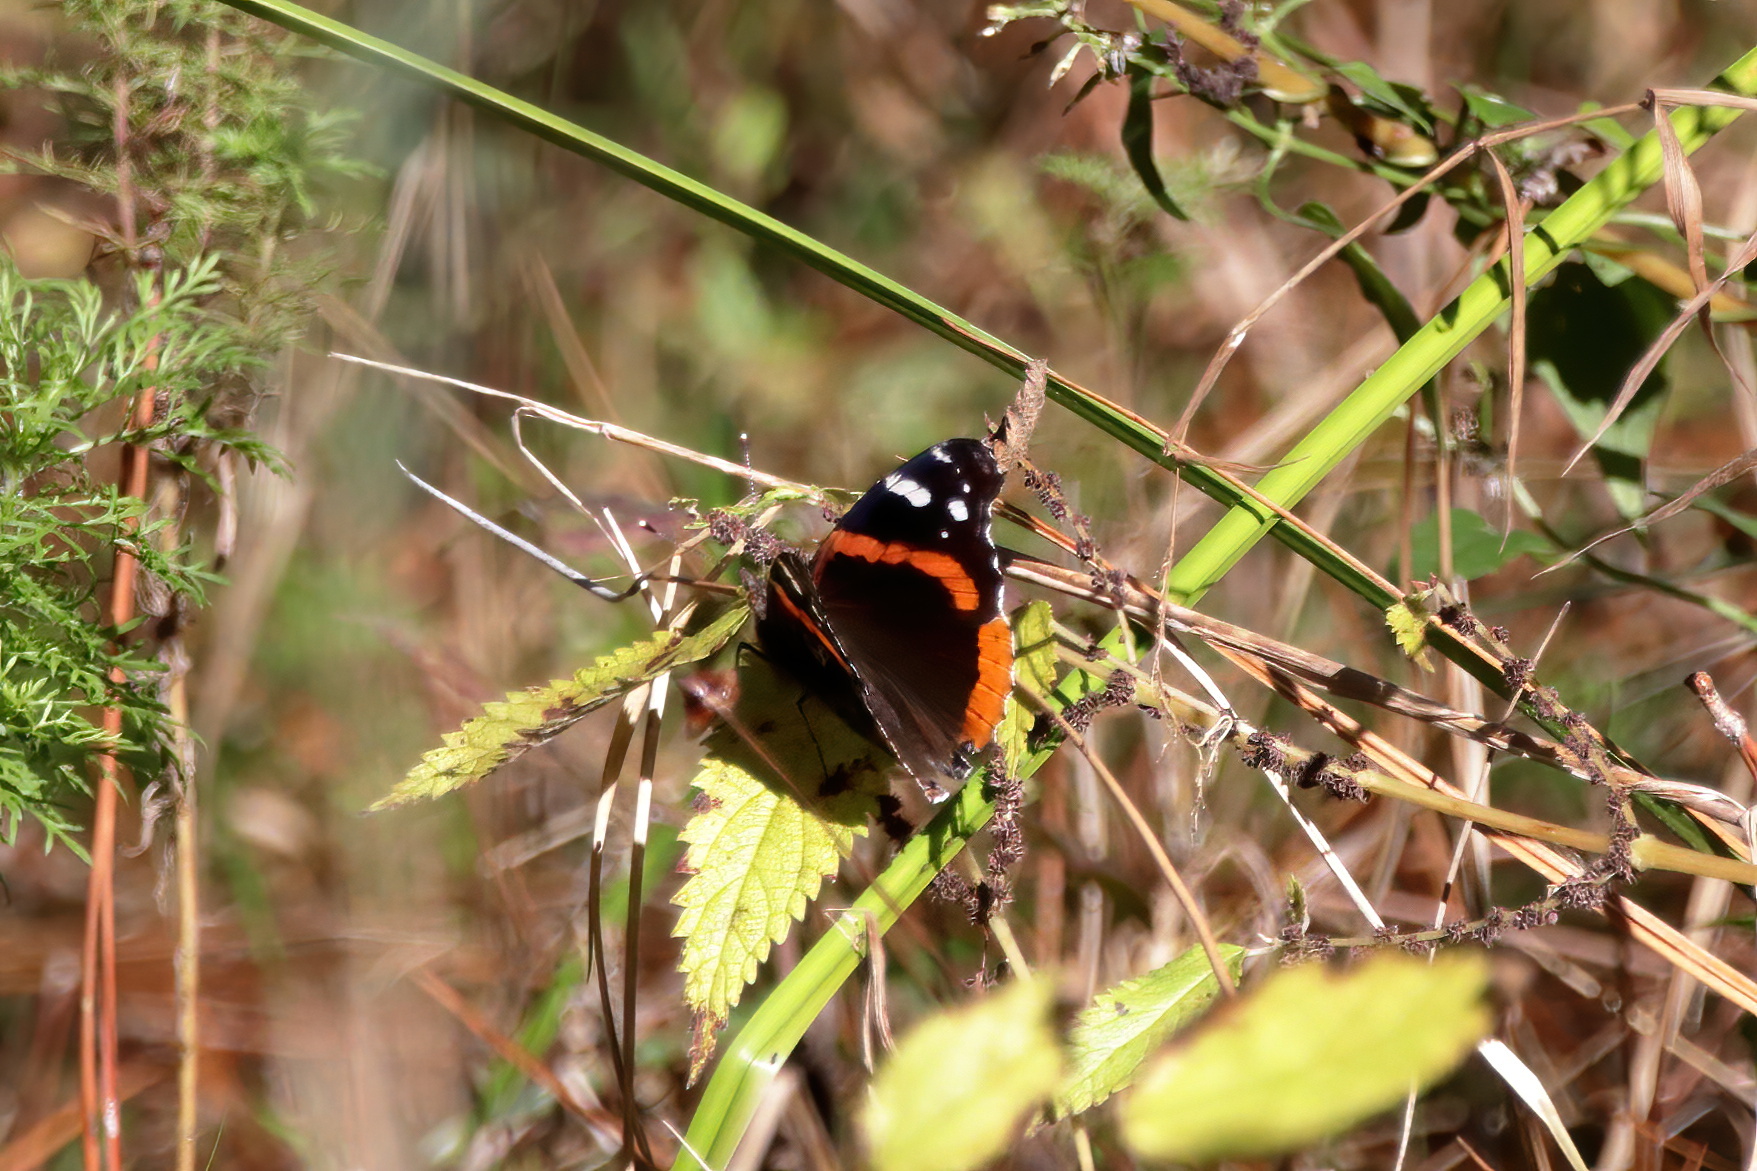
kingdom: Animalia
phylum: Arthropoda
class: Insecta
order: Lepidoptera
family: Nymphalidae
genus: Vanessa
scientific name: Vanessa atalanta
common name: Red admiral
